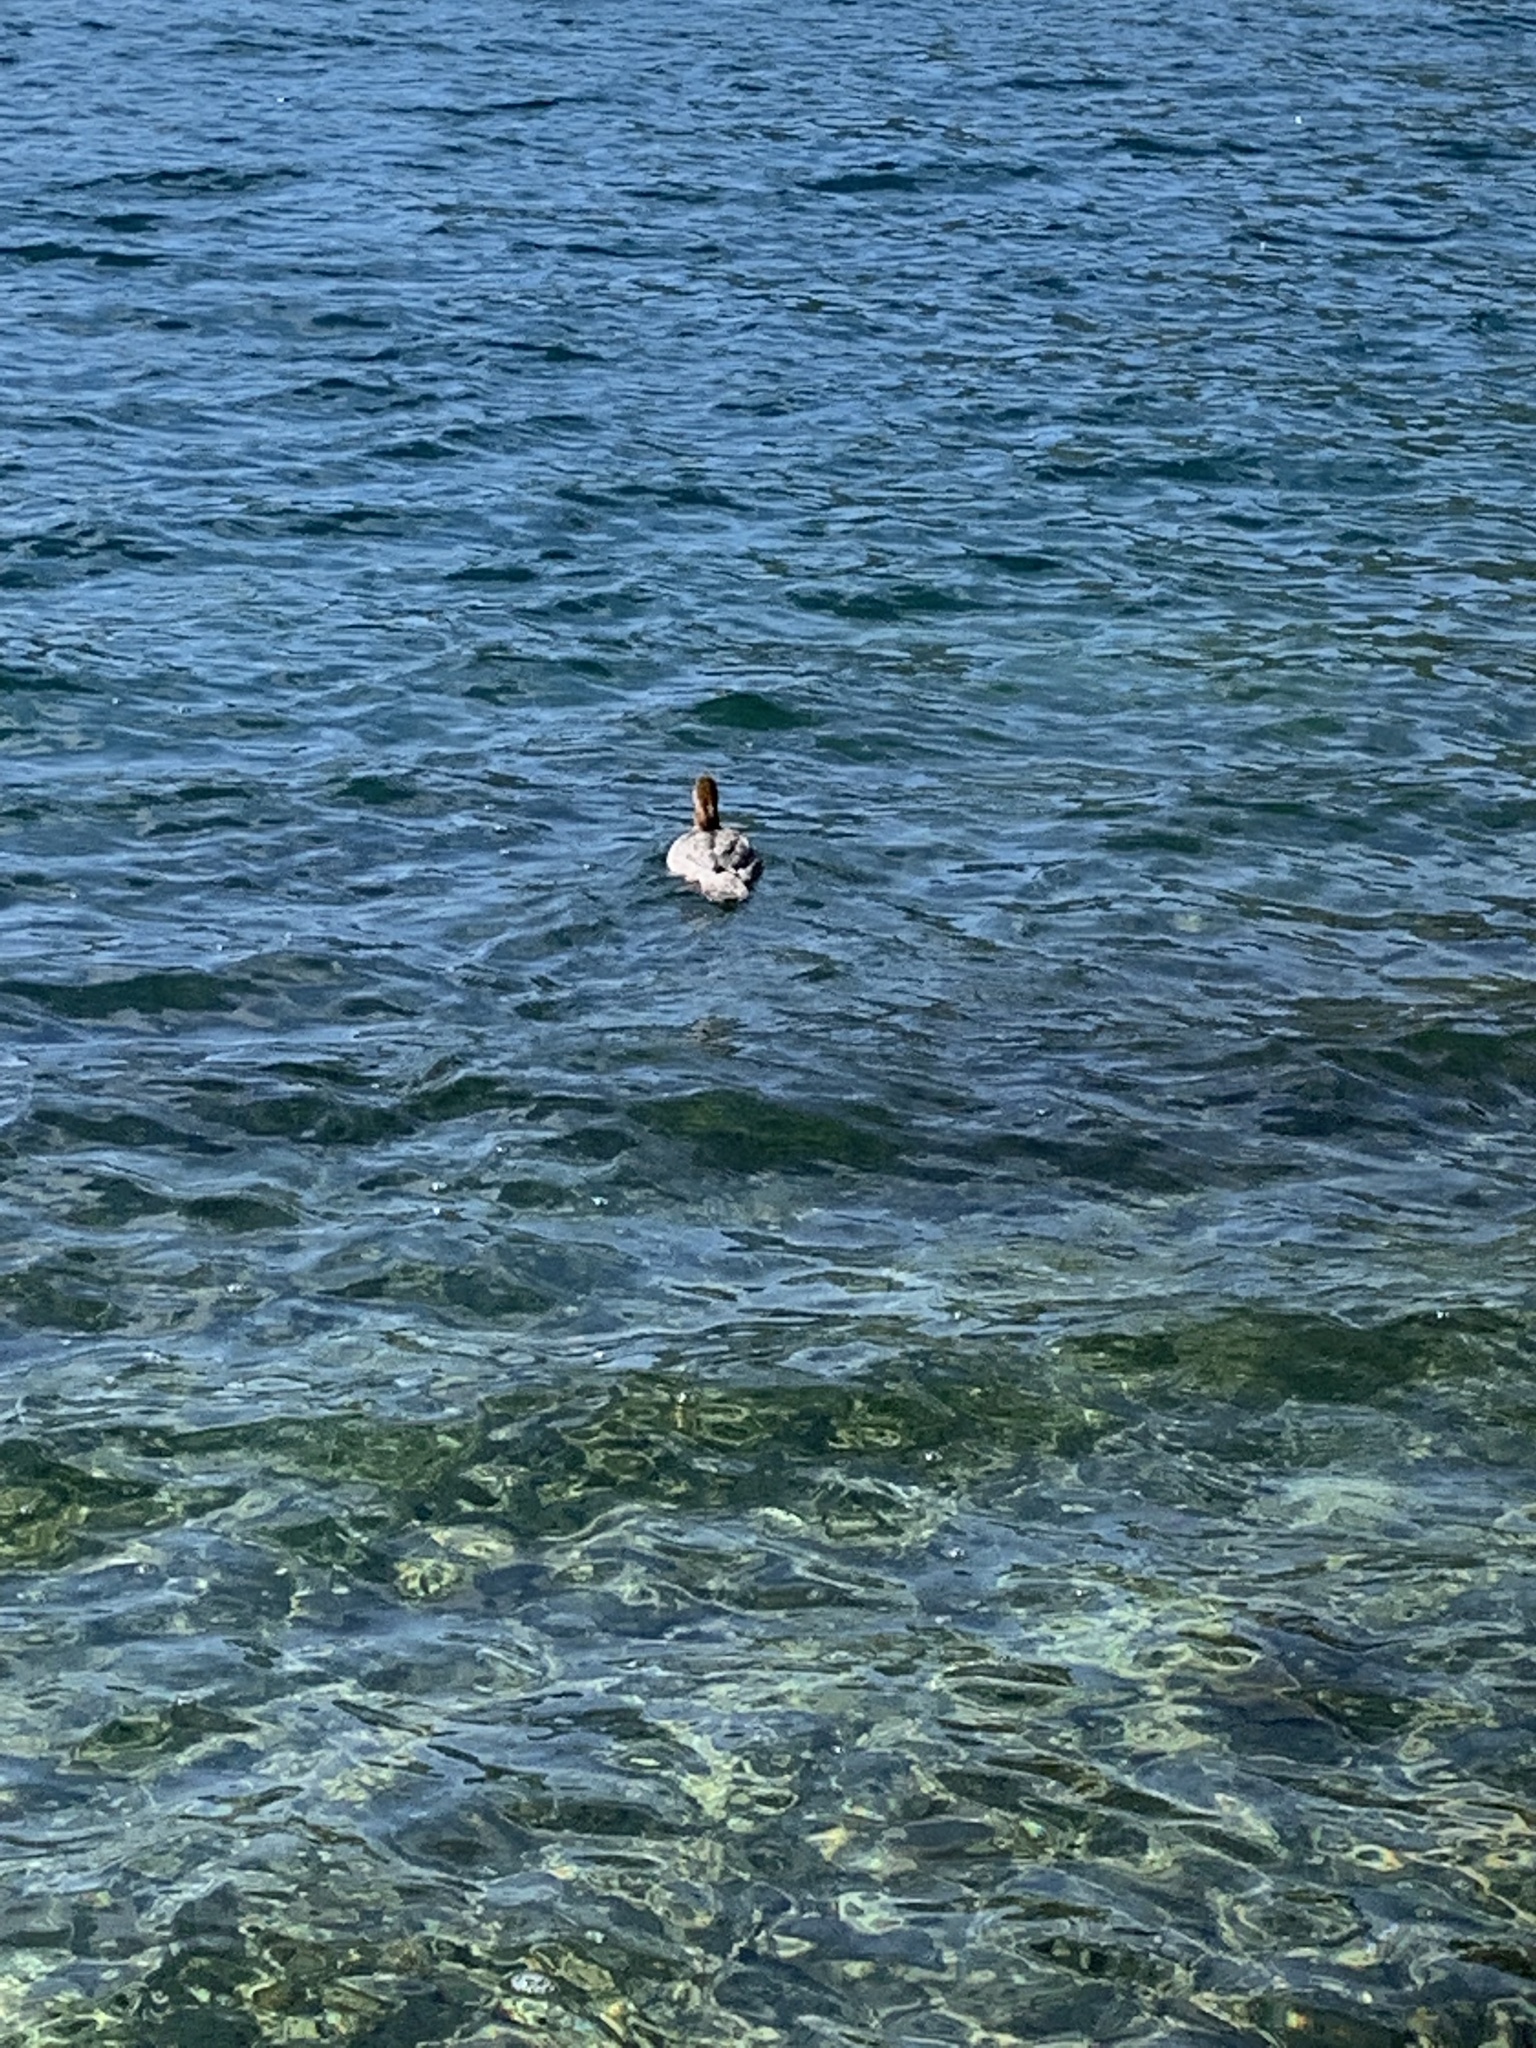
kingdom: Animalia
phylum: Chordata
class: Aves
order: Anseriformes
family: Anatidae
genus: Mergus
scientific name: Mergus merganser
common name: Common merganser
